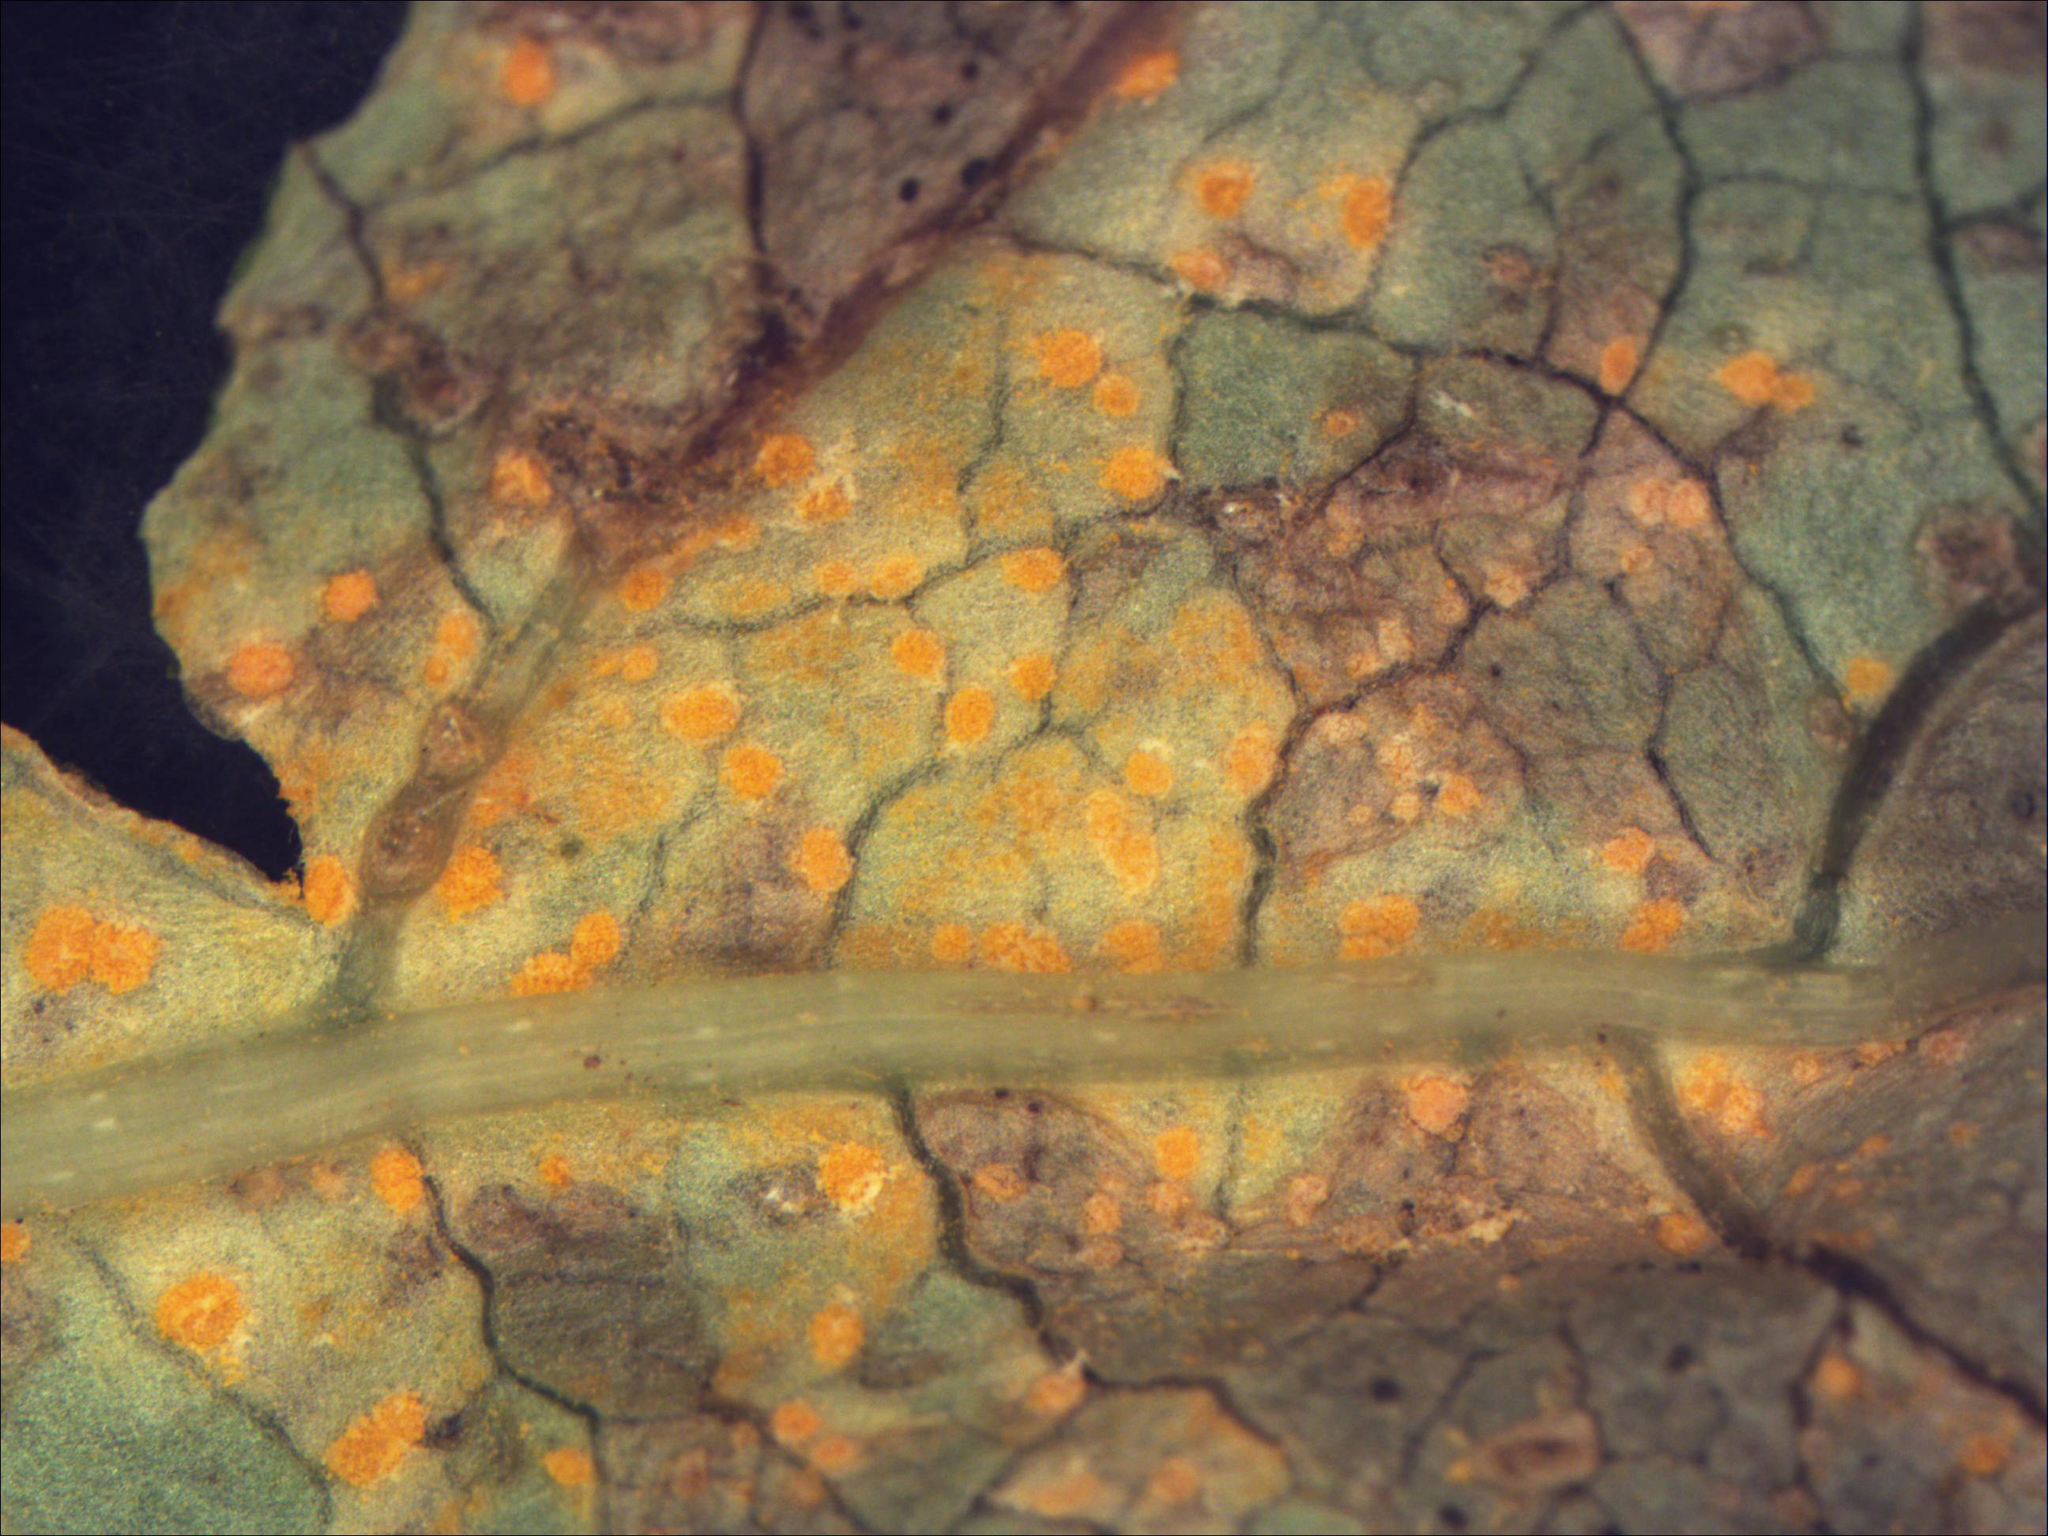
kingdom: Fungi
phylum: Basidiomycota
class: Pucciniomycetes
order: Pucciniales
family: Mikronegeriaceae
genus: Mikronegeria
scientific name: Mikronegeria fuchsiae
